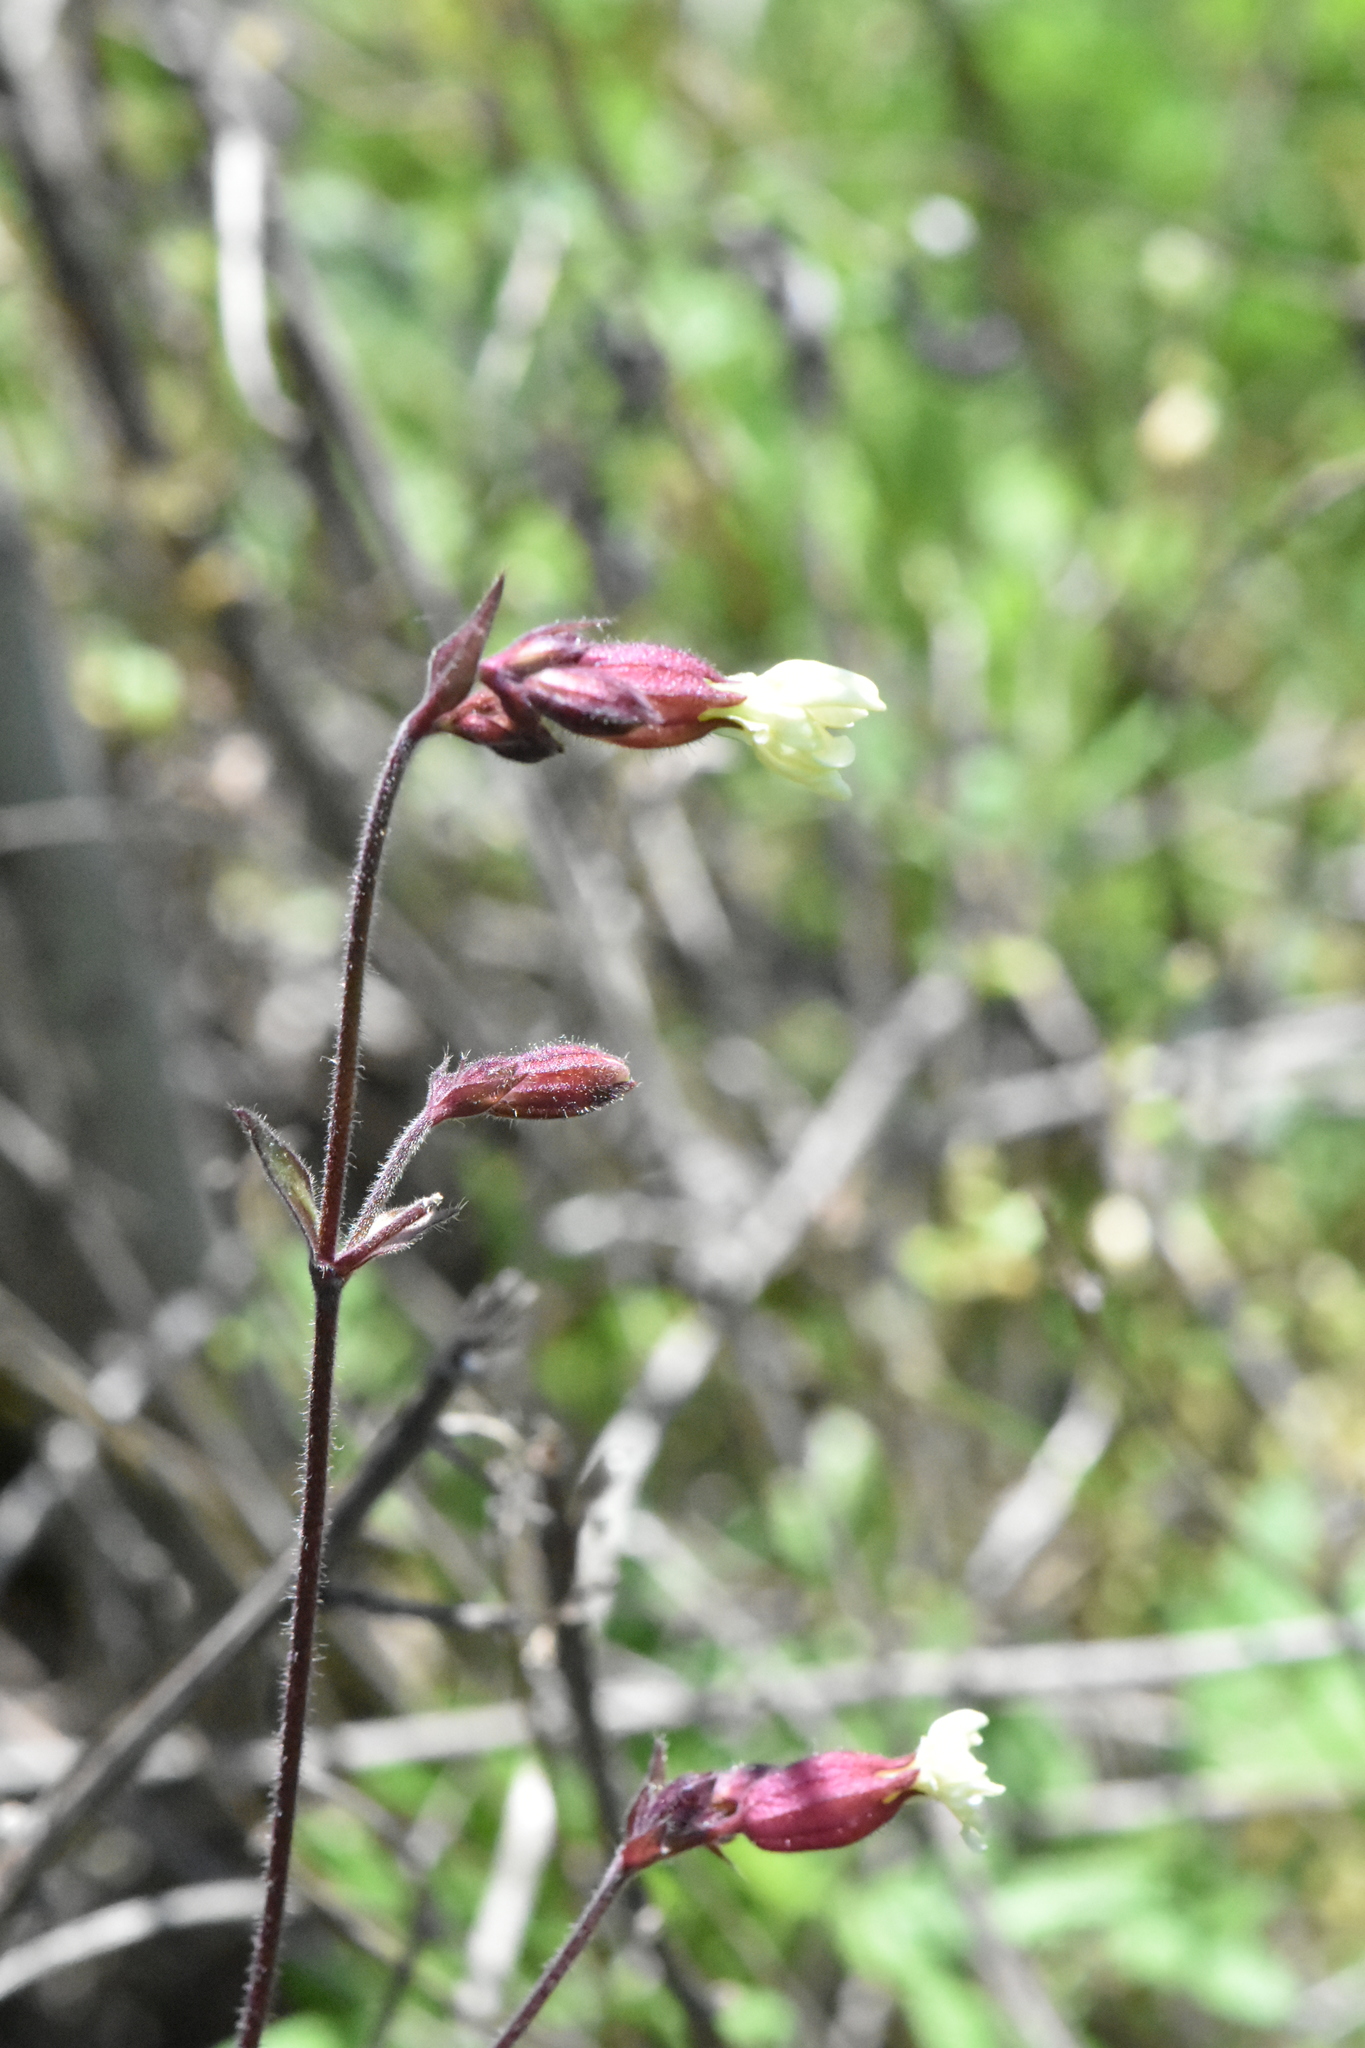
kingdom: Plantae
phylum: Tracheophyta
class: Magnoliopsida
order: Caryophyllales
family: Caryophyllaceae
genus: Silene
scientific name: Silene latifolia
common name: White campion
